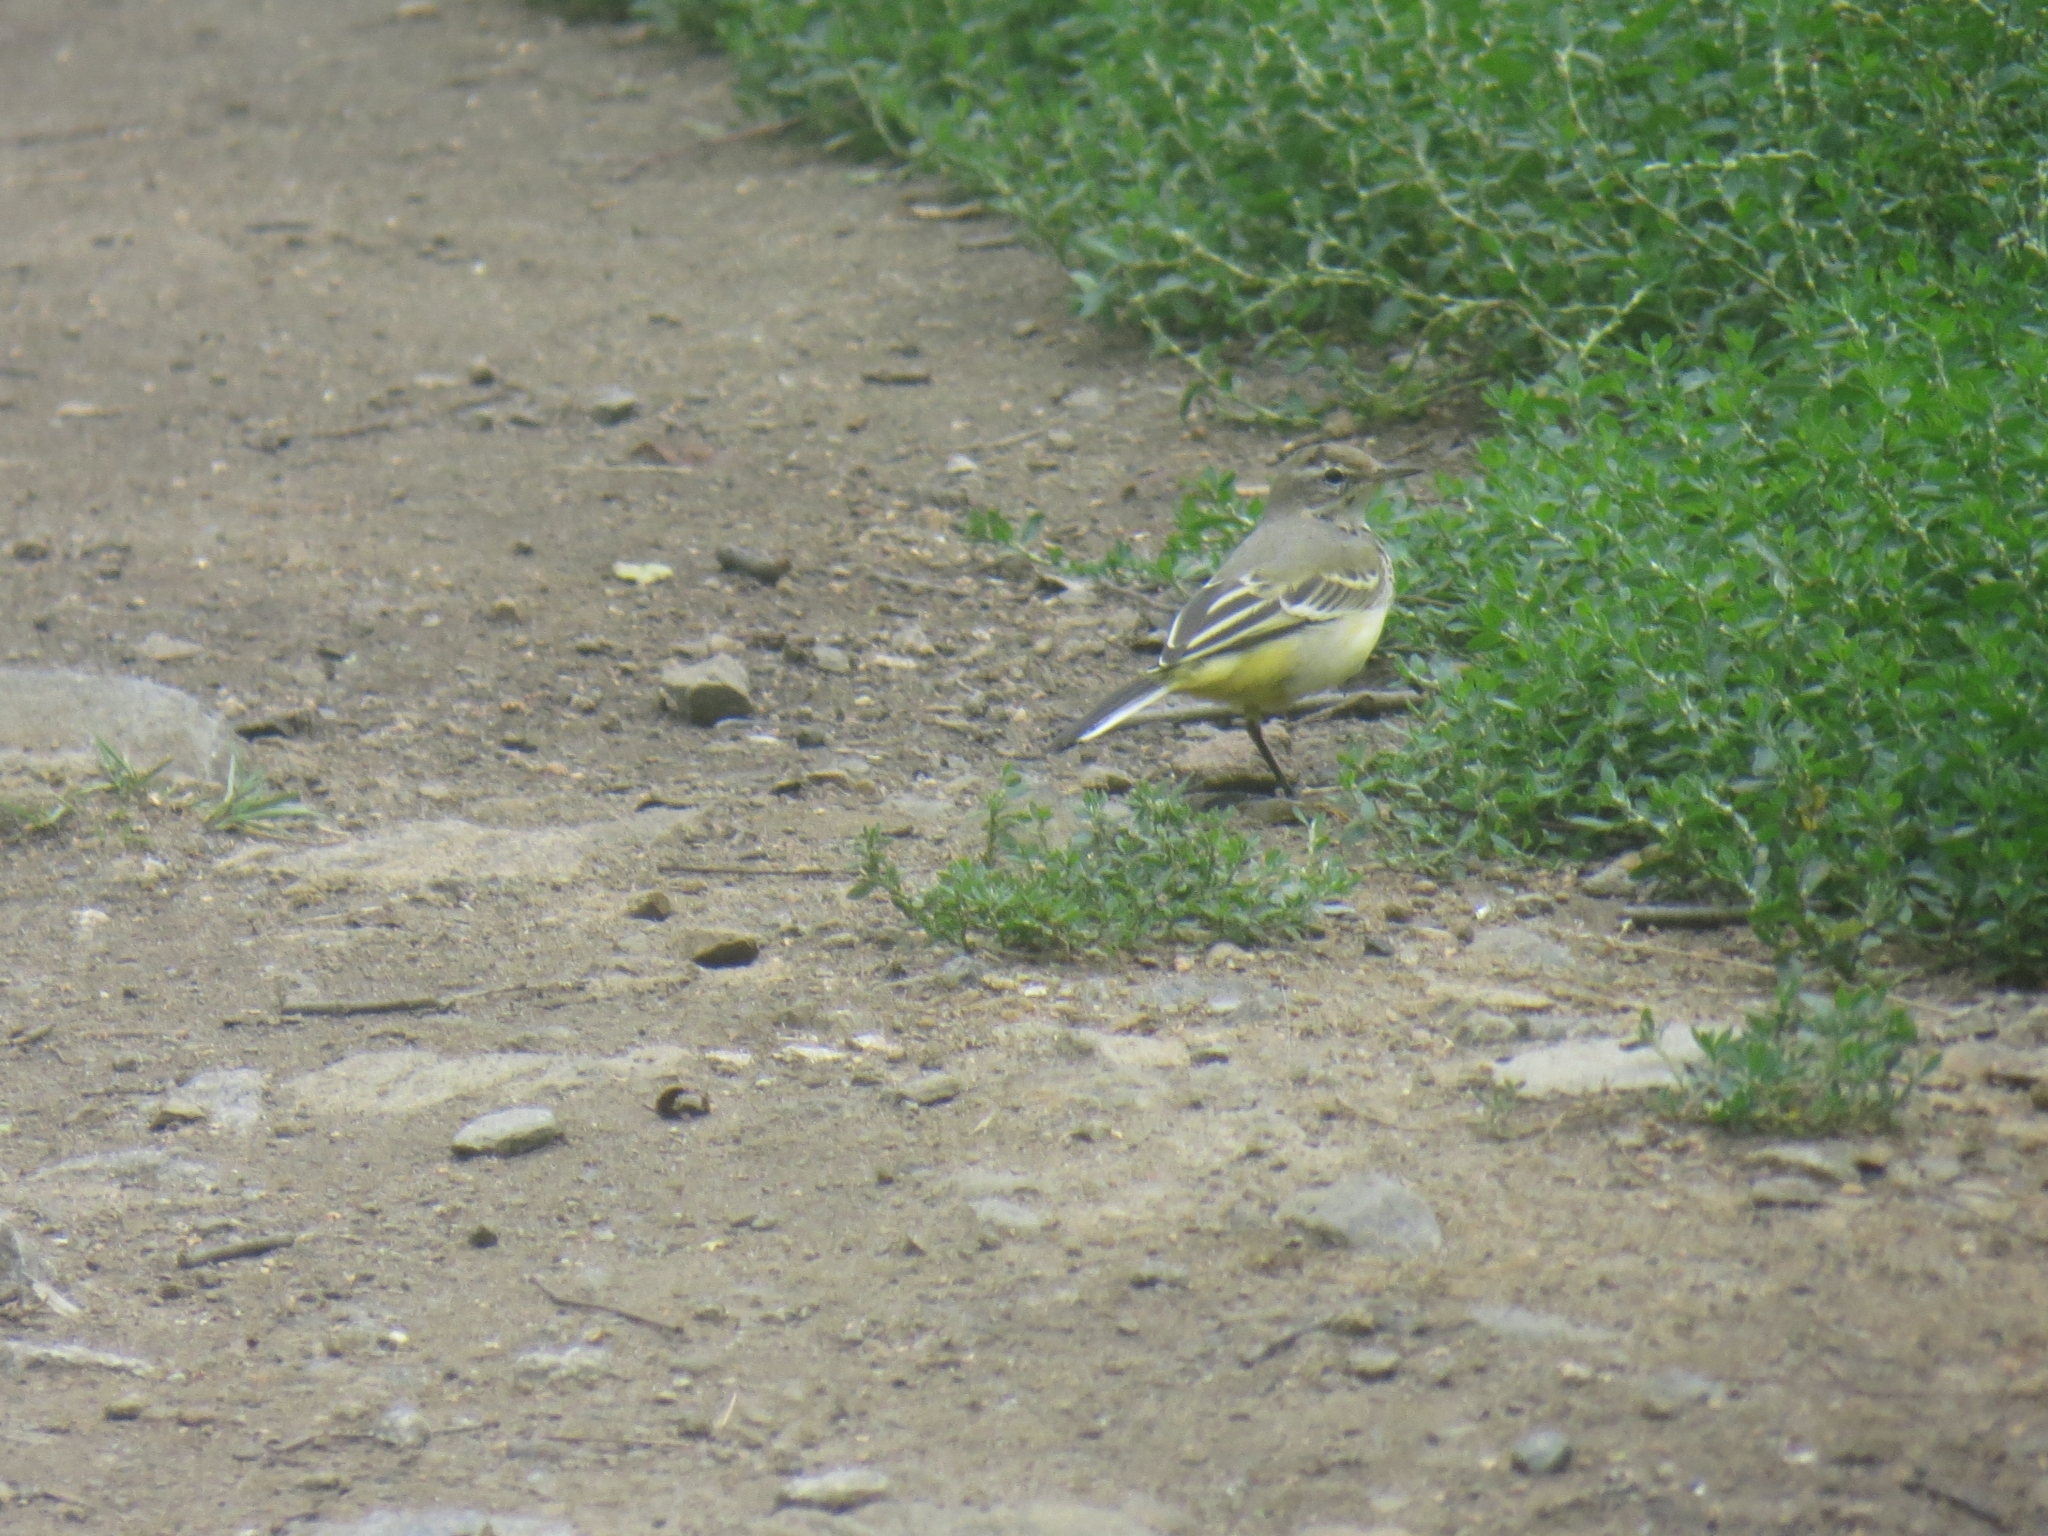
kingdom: Animalia
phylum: Chordata
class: Aves
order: Passeriformes
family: Motacillidae
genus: Motacilla
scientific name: Motacilla cinerea
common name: Grey wagtail
